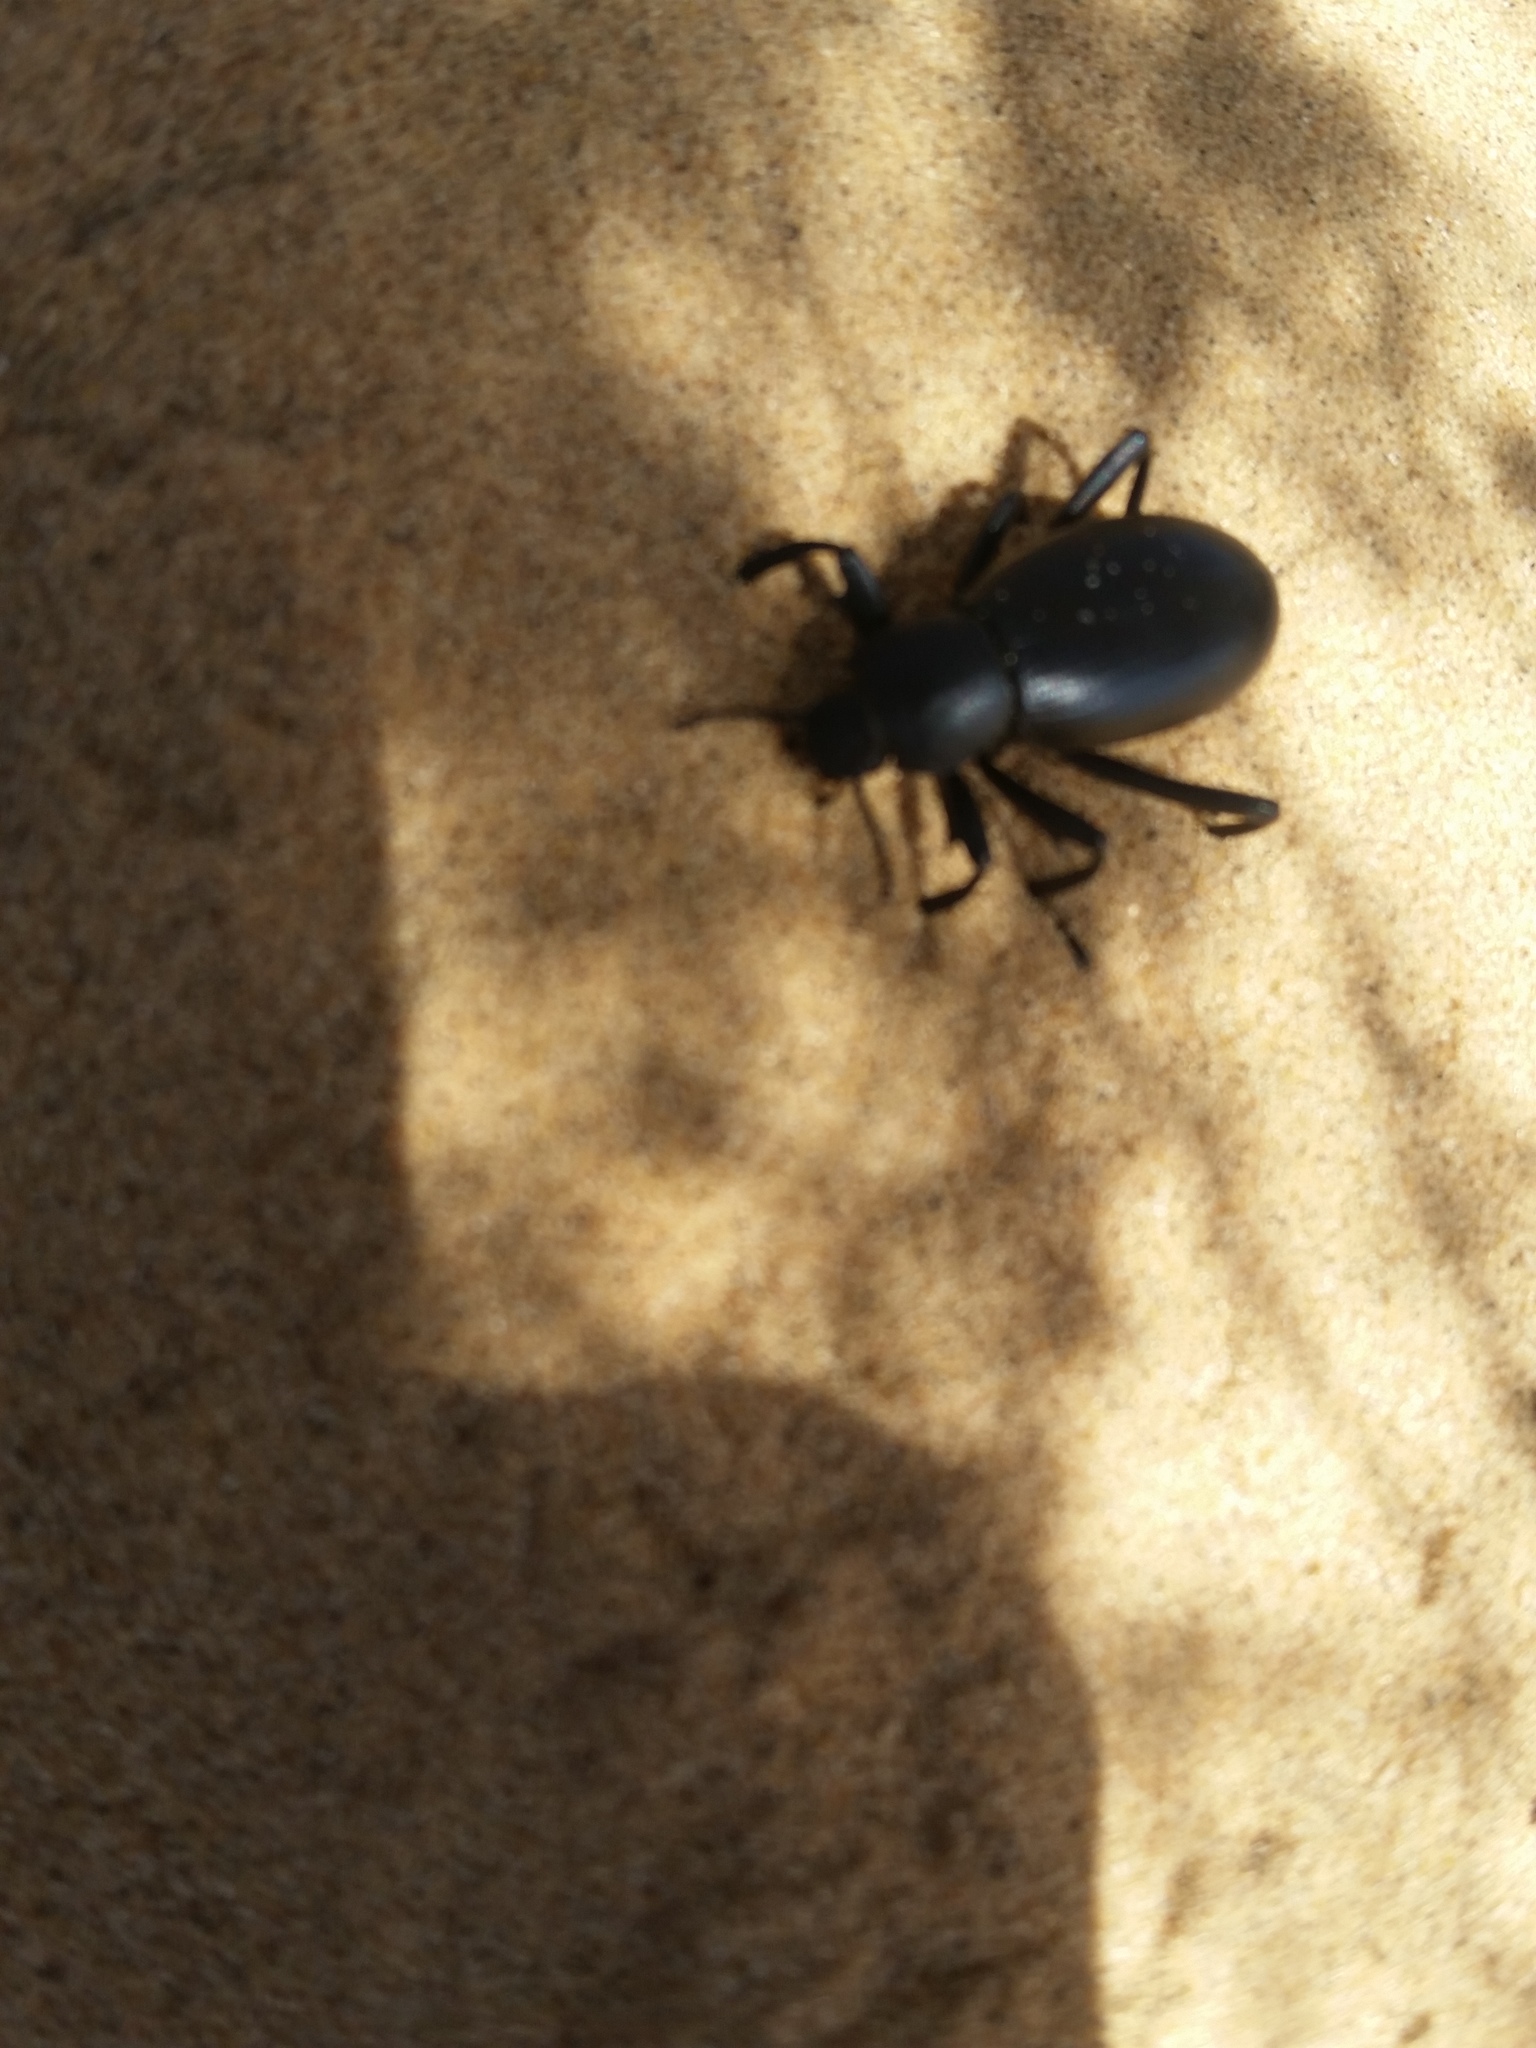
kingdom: Animalia
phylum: Arthropoda
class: Insecta
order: Coleoptera
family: Tenebrionidae
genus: Eleodes
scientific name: Eleodes armata
